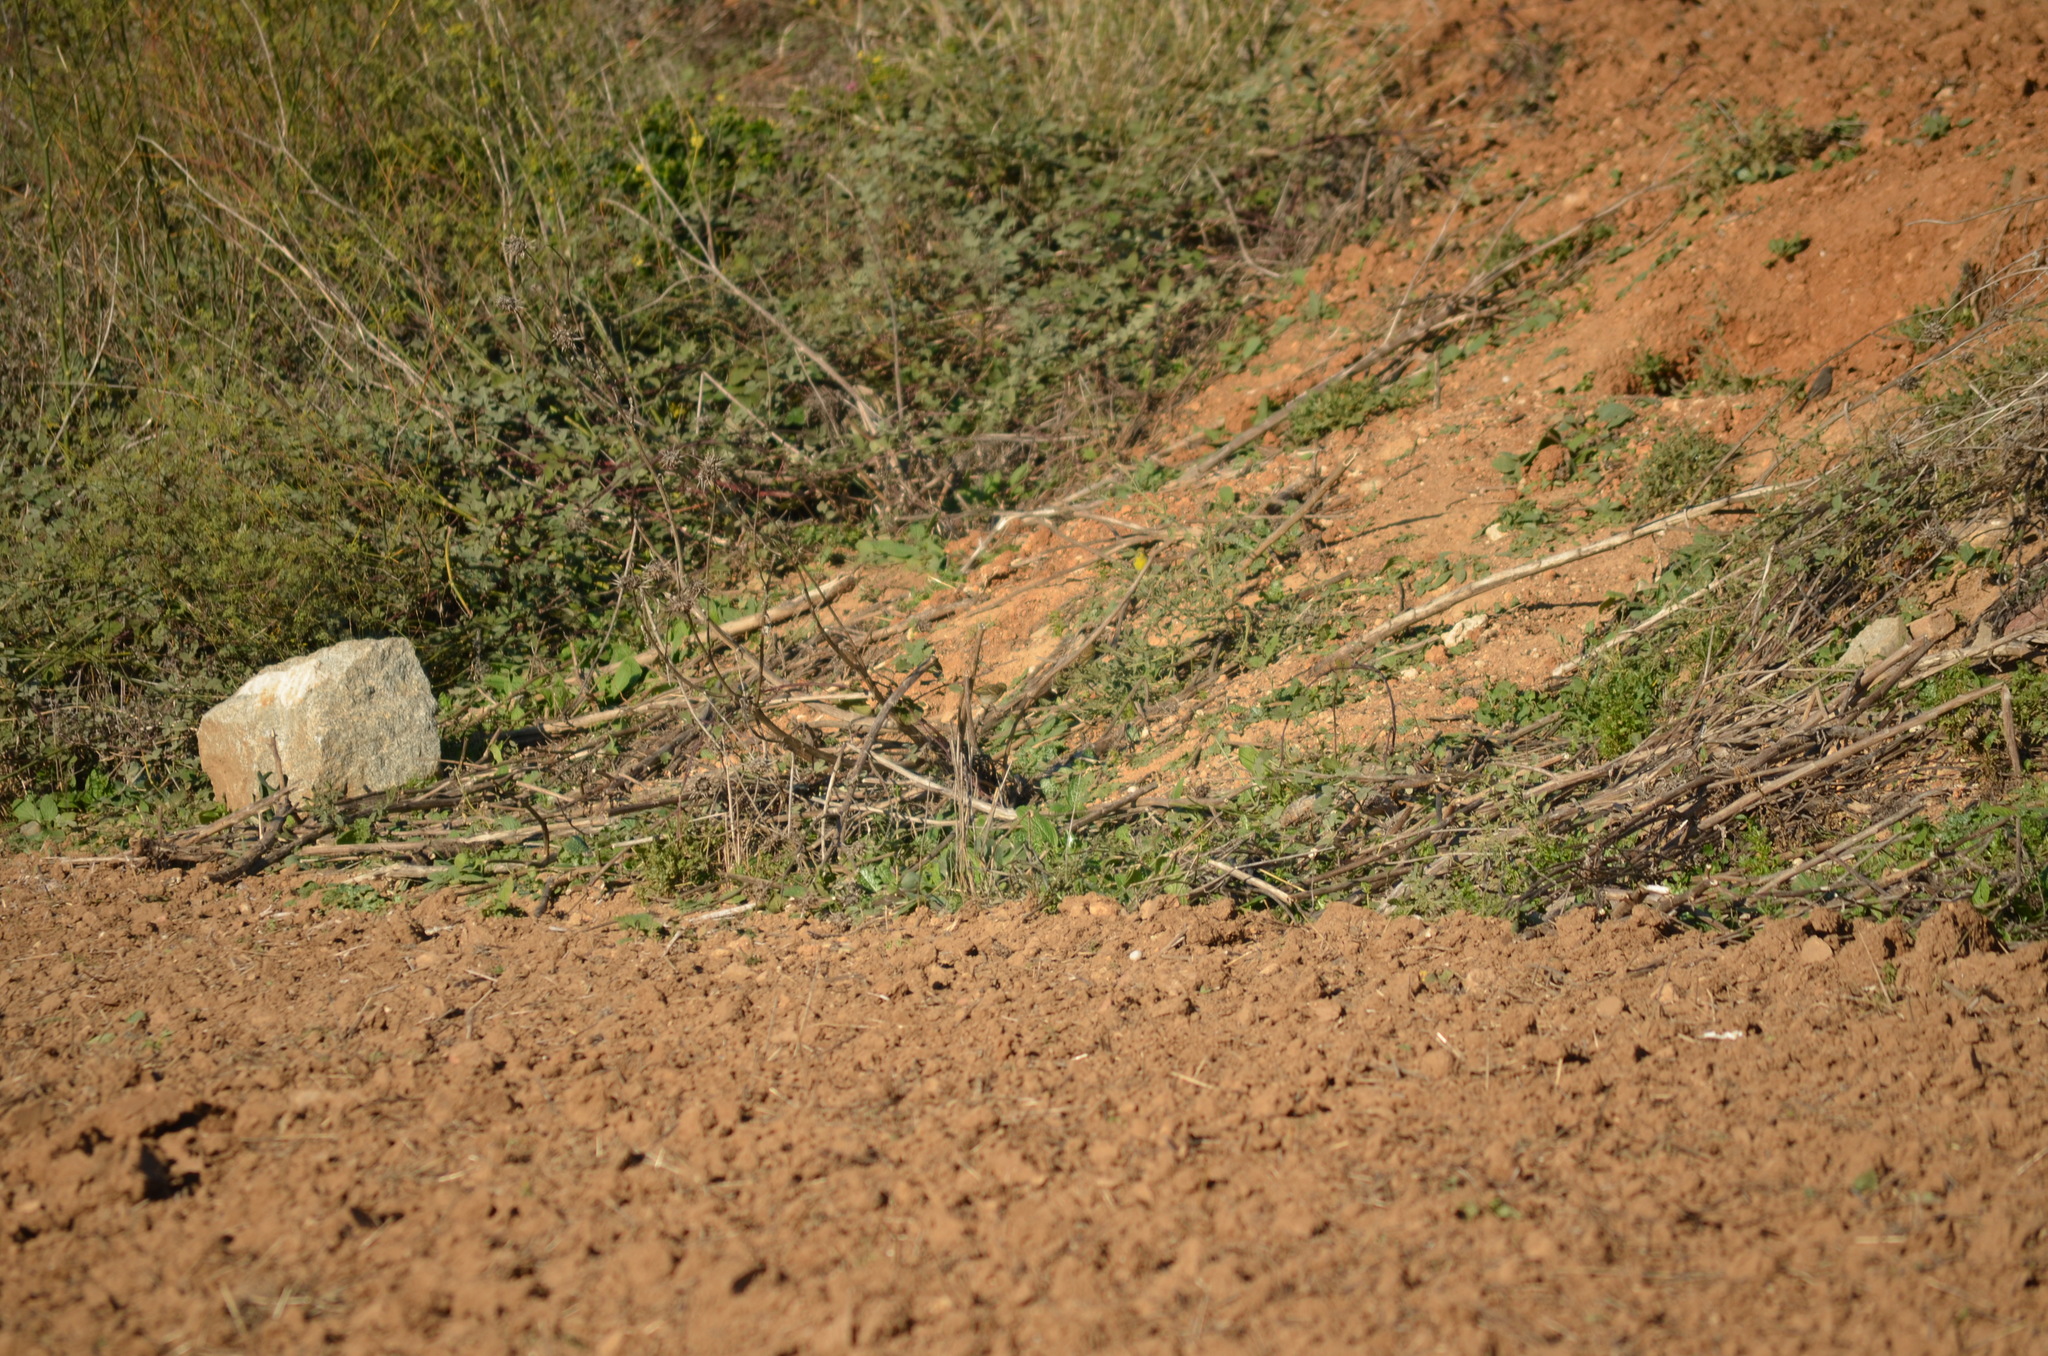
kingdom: Animalia
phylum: Chordata
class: Aves
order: Passeriformes
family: Muscicapidae
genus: Phoenicurus
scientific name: Phoenicurus ochruros
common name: Black redstart
